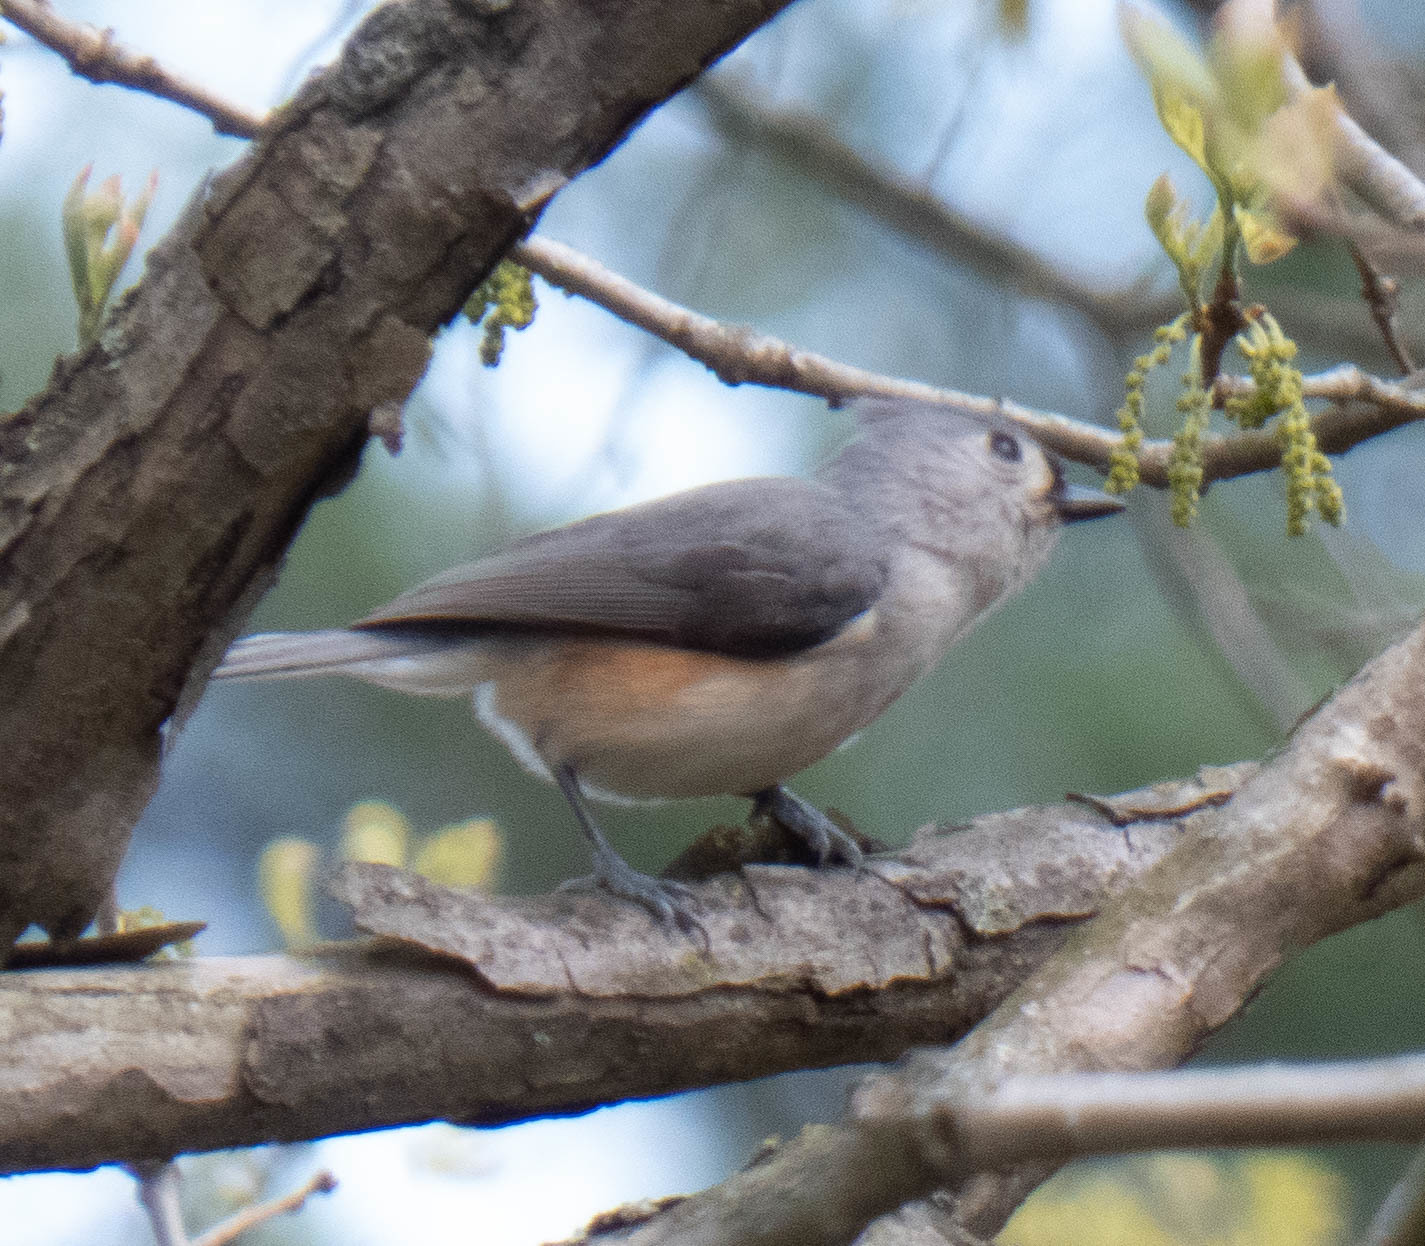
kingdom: Animalia
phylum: Chordata
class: Aves
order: Passeriformes
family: Paridae
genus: Baeolophus
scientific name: Baeolophus bicolor
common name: Tufted titmouse
